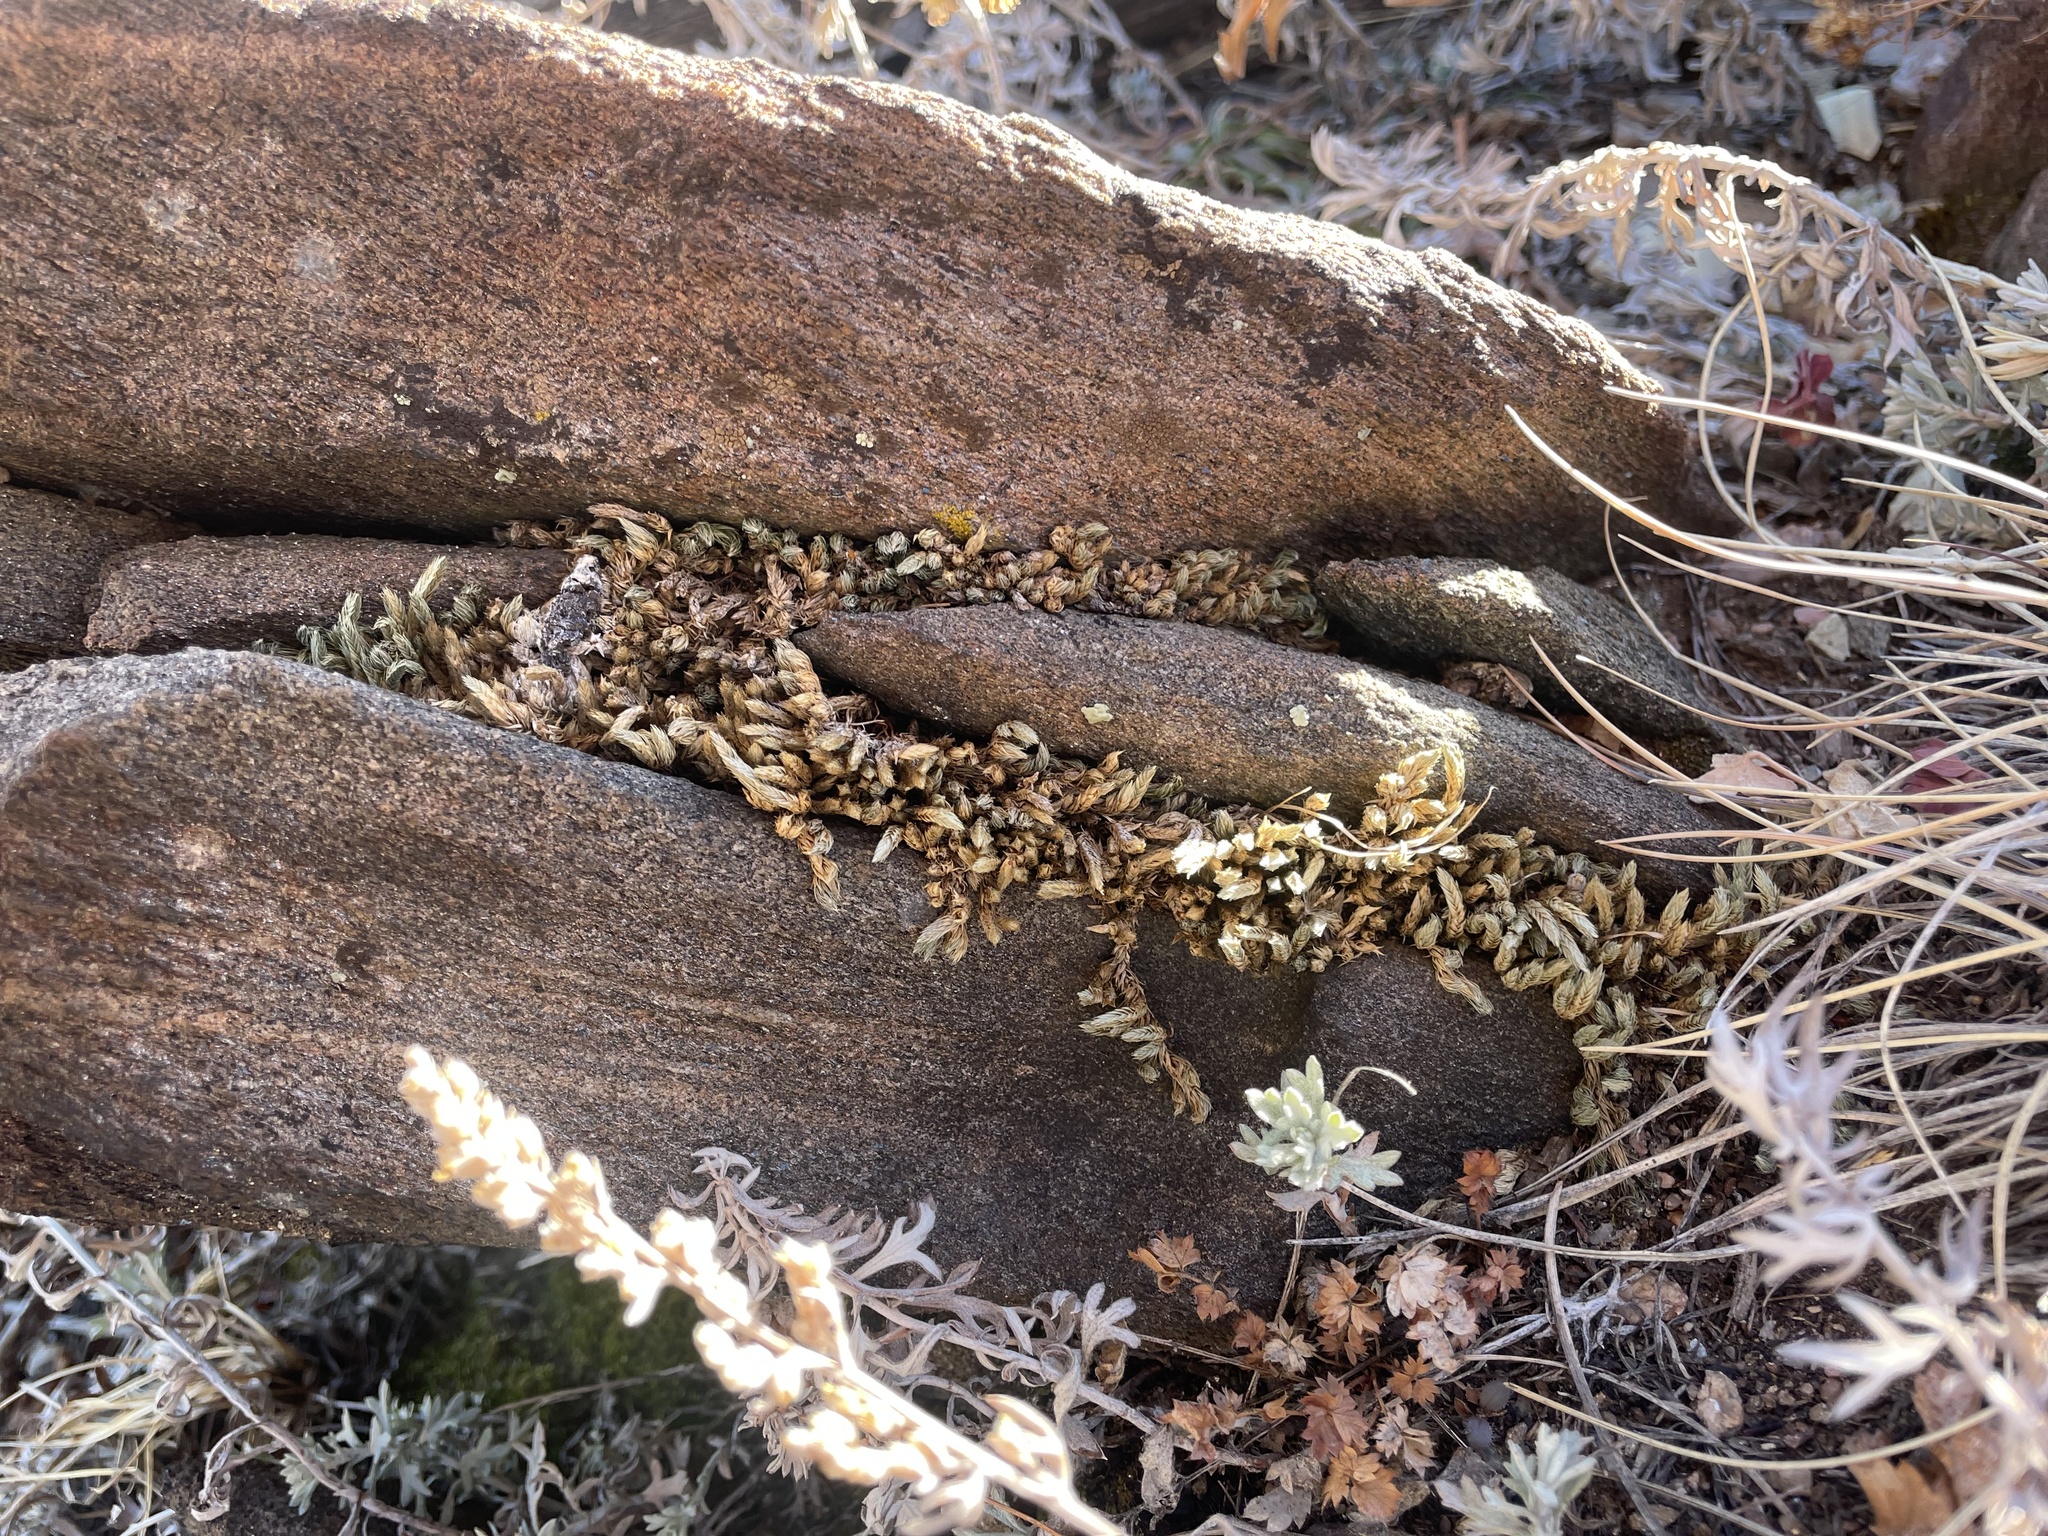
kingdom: Plantae
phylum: Tracheophyta
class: Lycopodiopsida
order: Selaginellales
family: Selaginellaceae
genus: Selaginella
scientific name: Selaginella densa
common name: Mountain spike-moss
